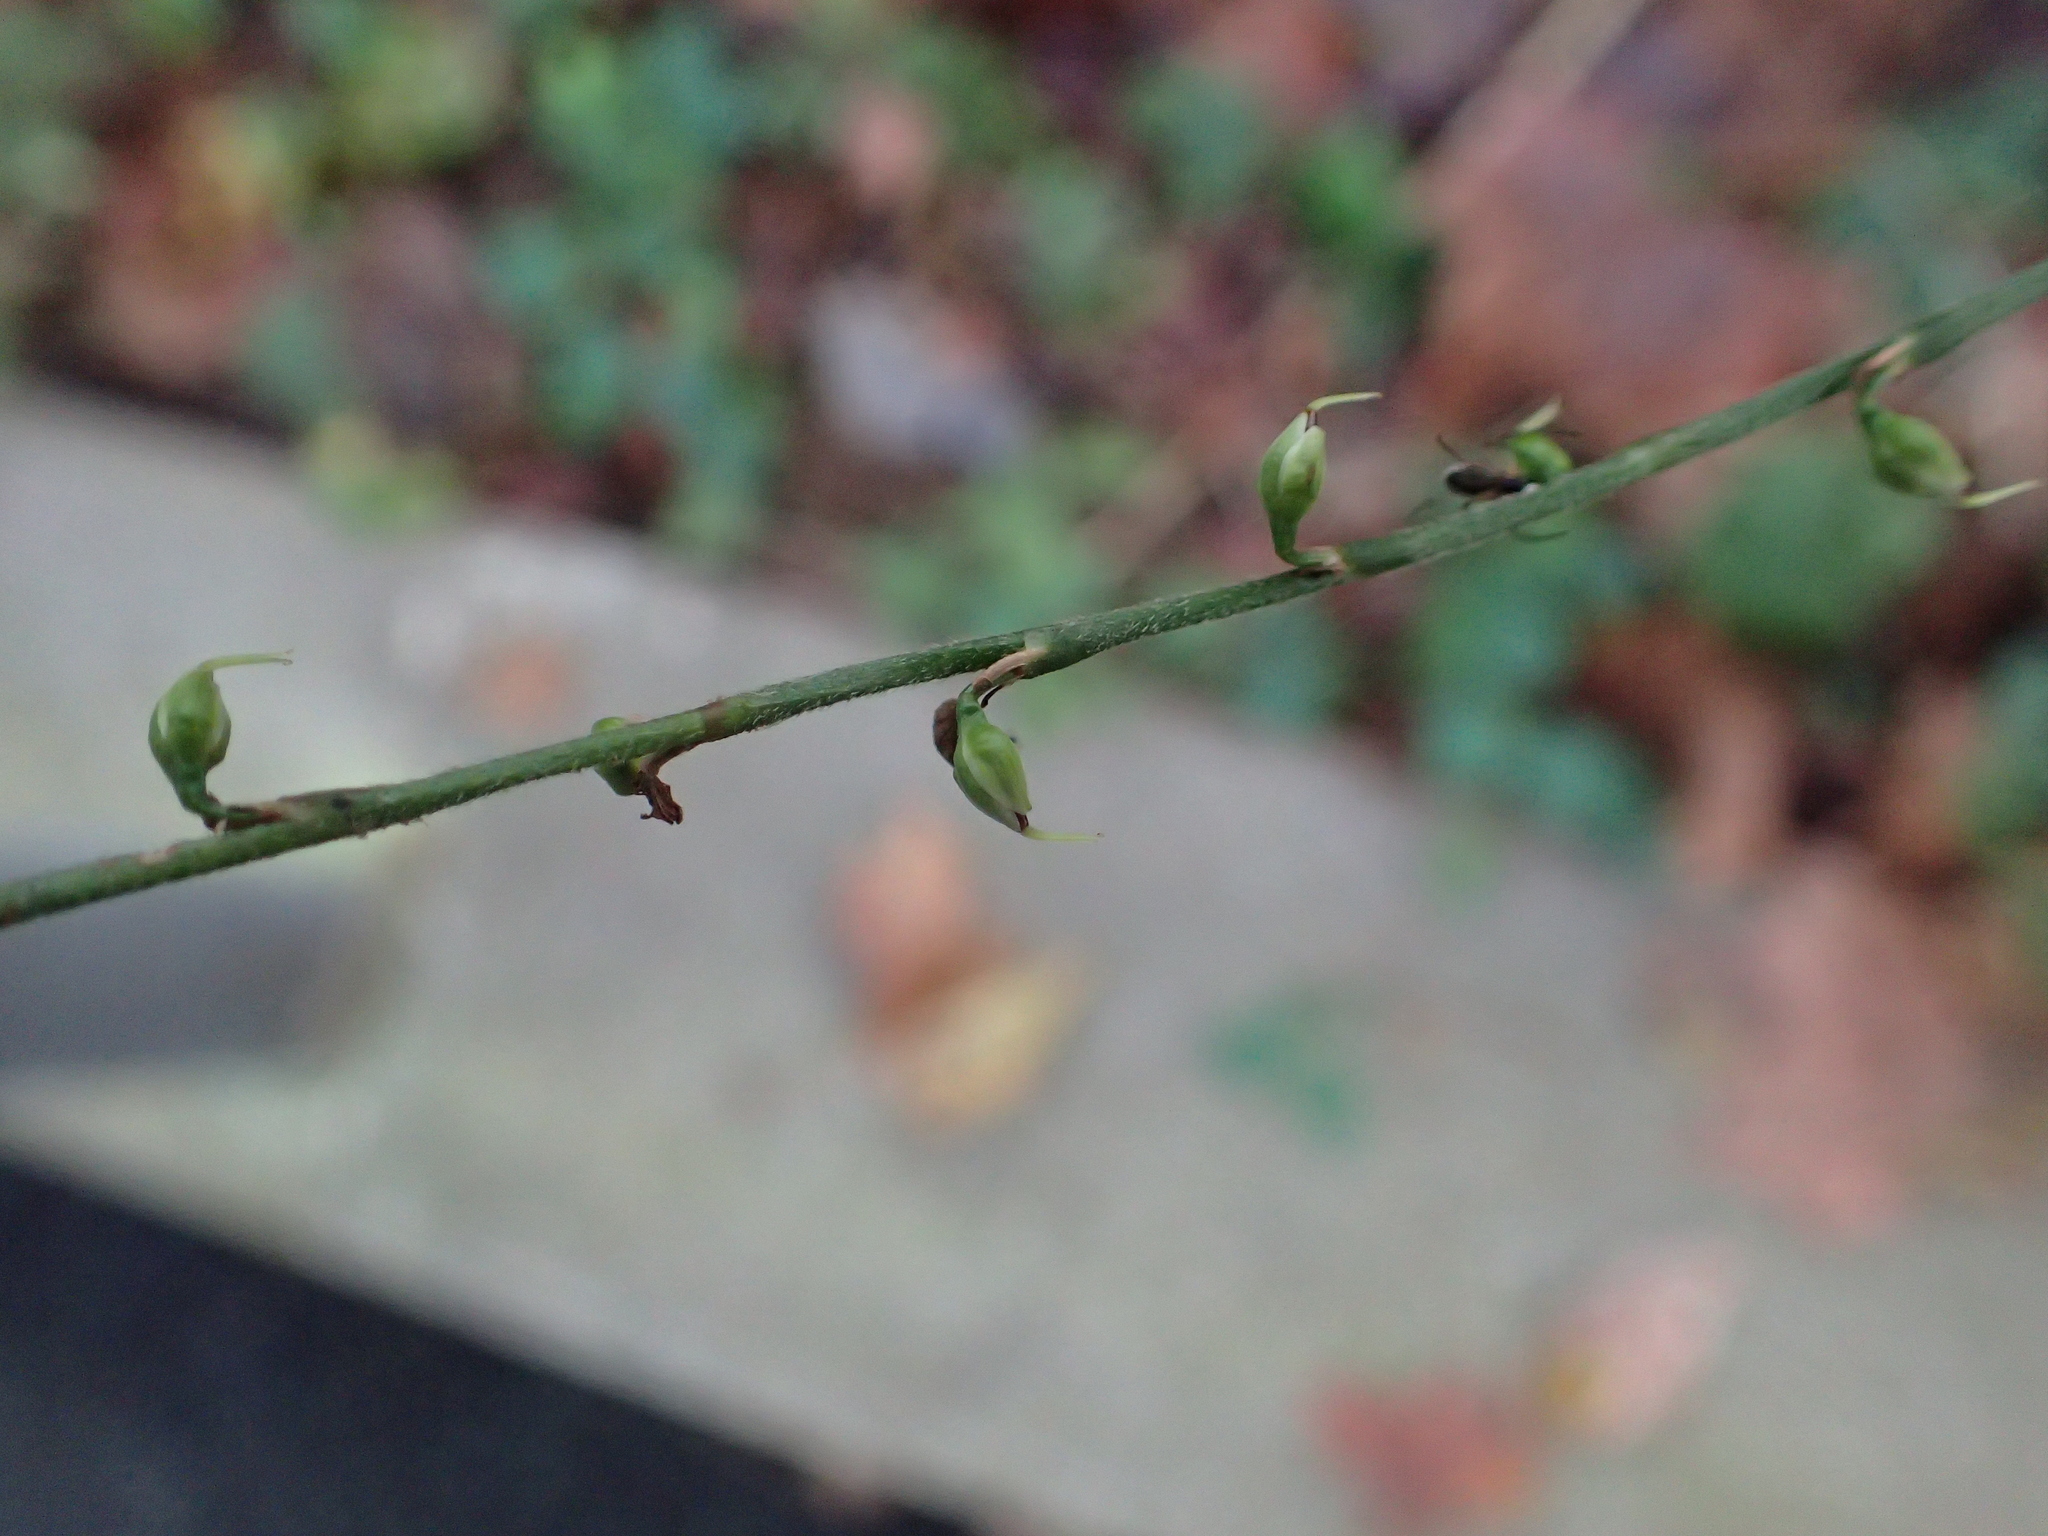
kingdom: Plantae
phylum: Tracheophyta
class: Magnoliopsida
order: Caryophyllales
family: Polygonaceae
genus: Persicaria
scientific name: Persicaria virginiana
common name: Jumpseed
